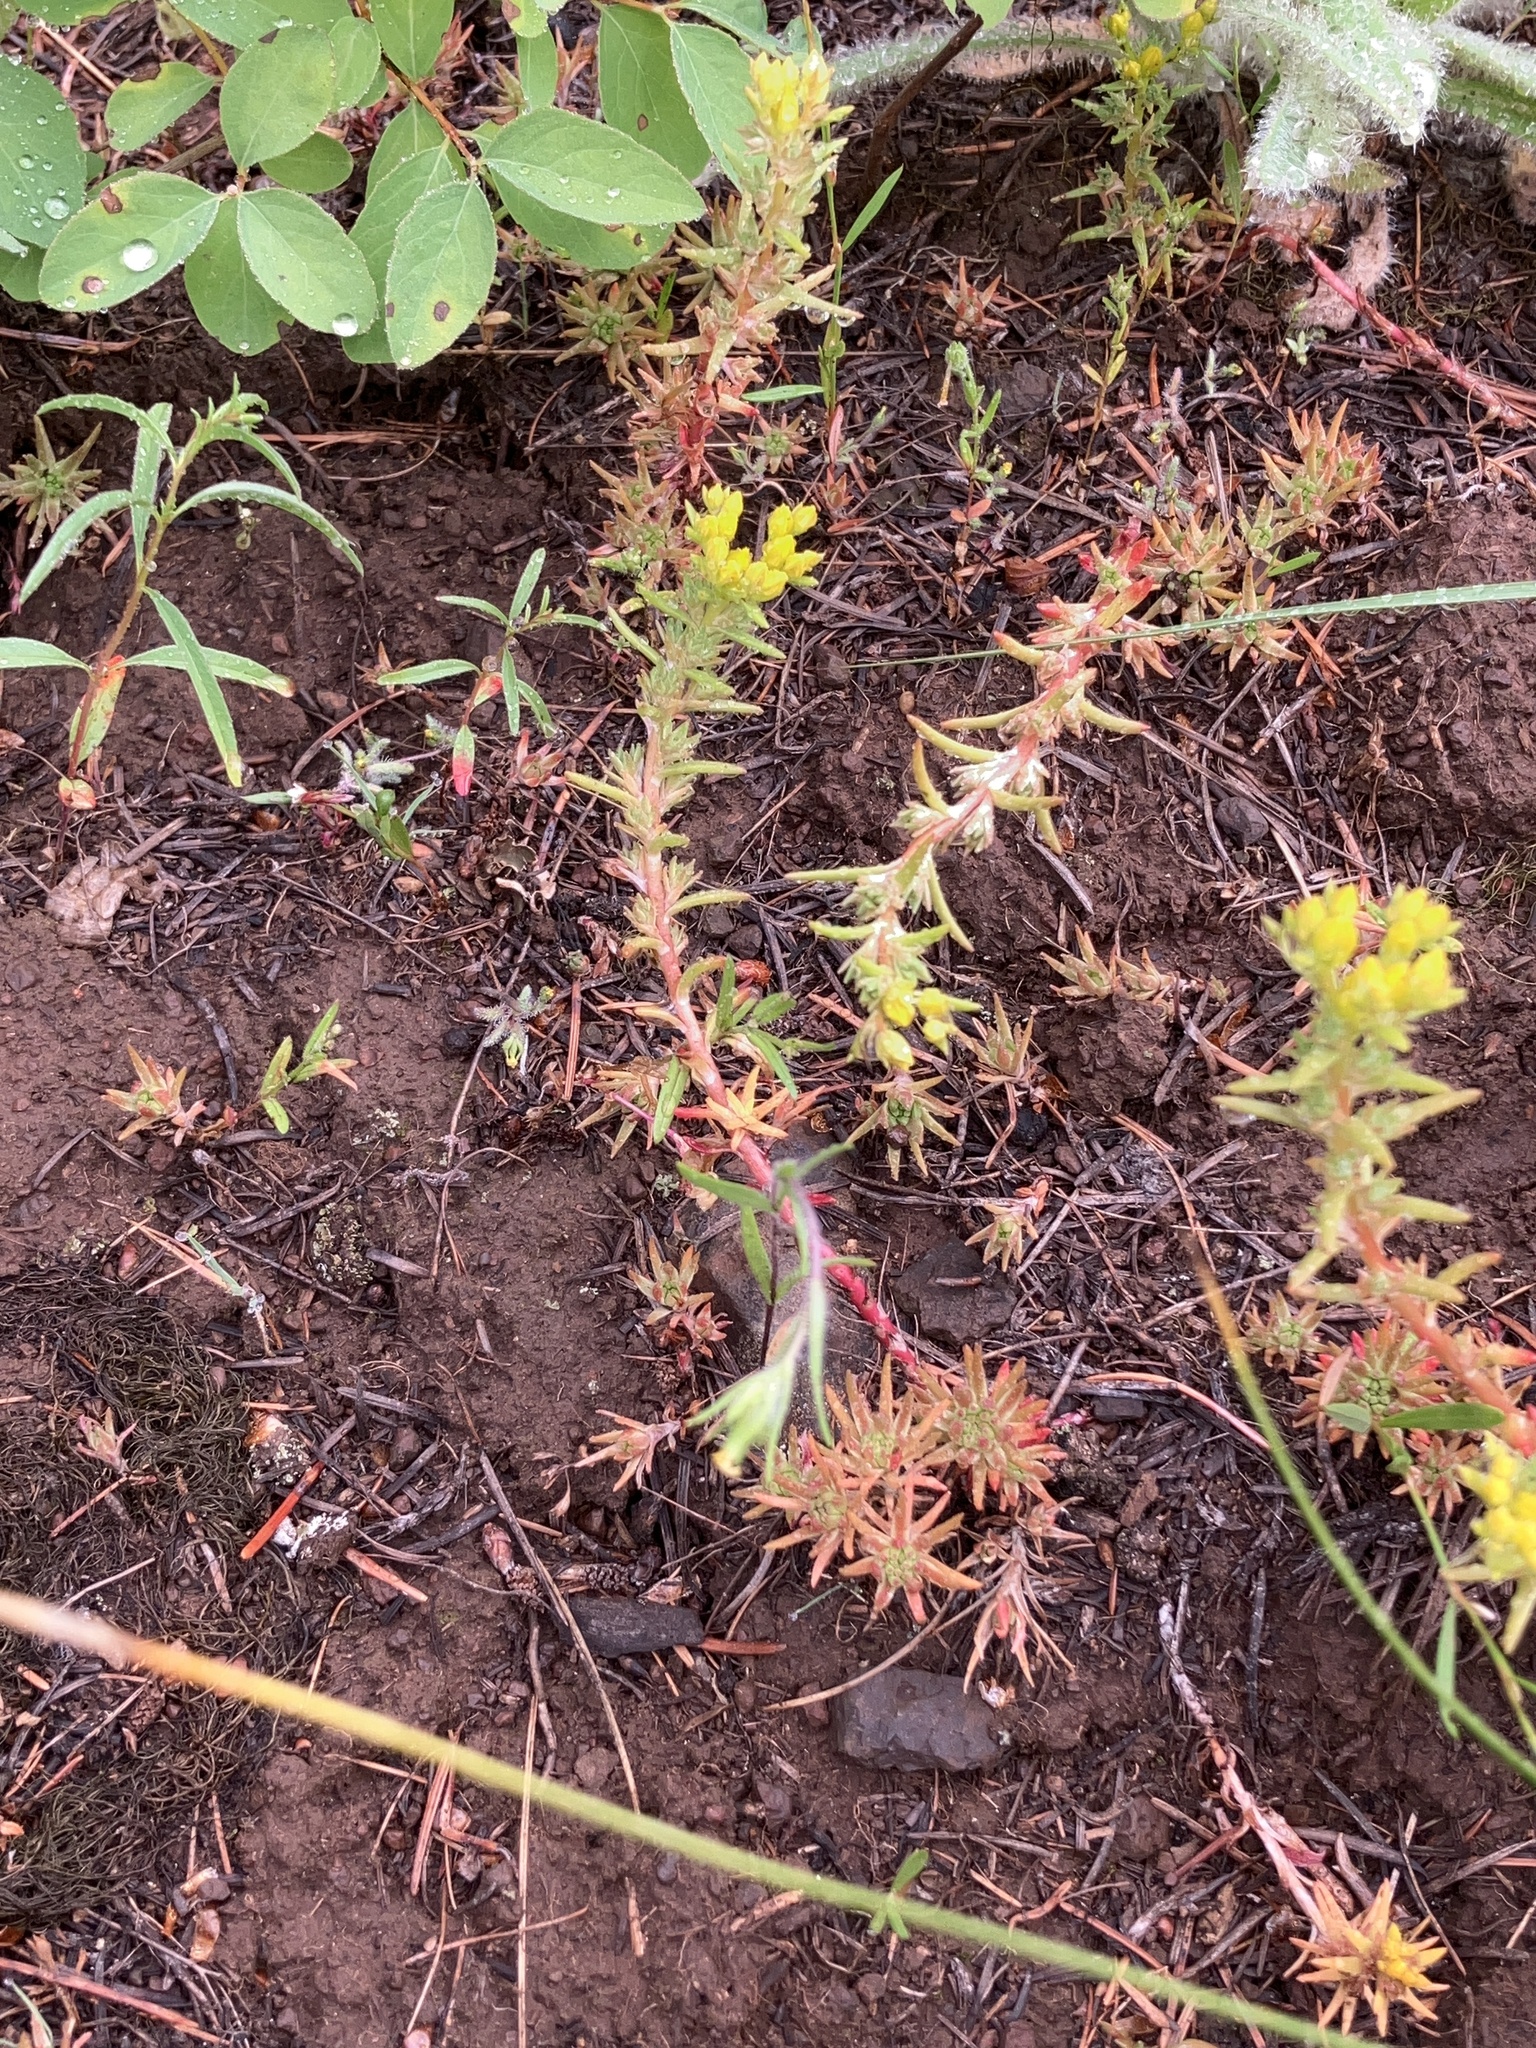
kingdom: Plantae
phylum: Tracheophyta
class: Magnoliopsida
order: Saxifragales
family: Crassulaceae
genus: Sedum
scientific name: Sedum stenopetalum
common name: Narrow-petaled stonecrop
